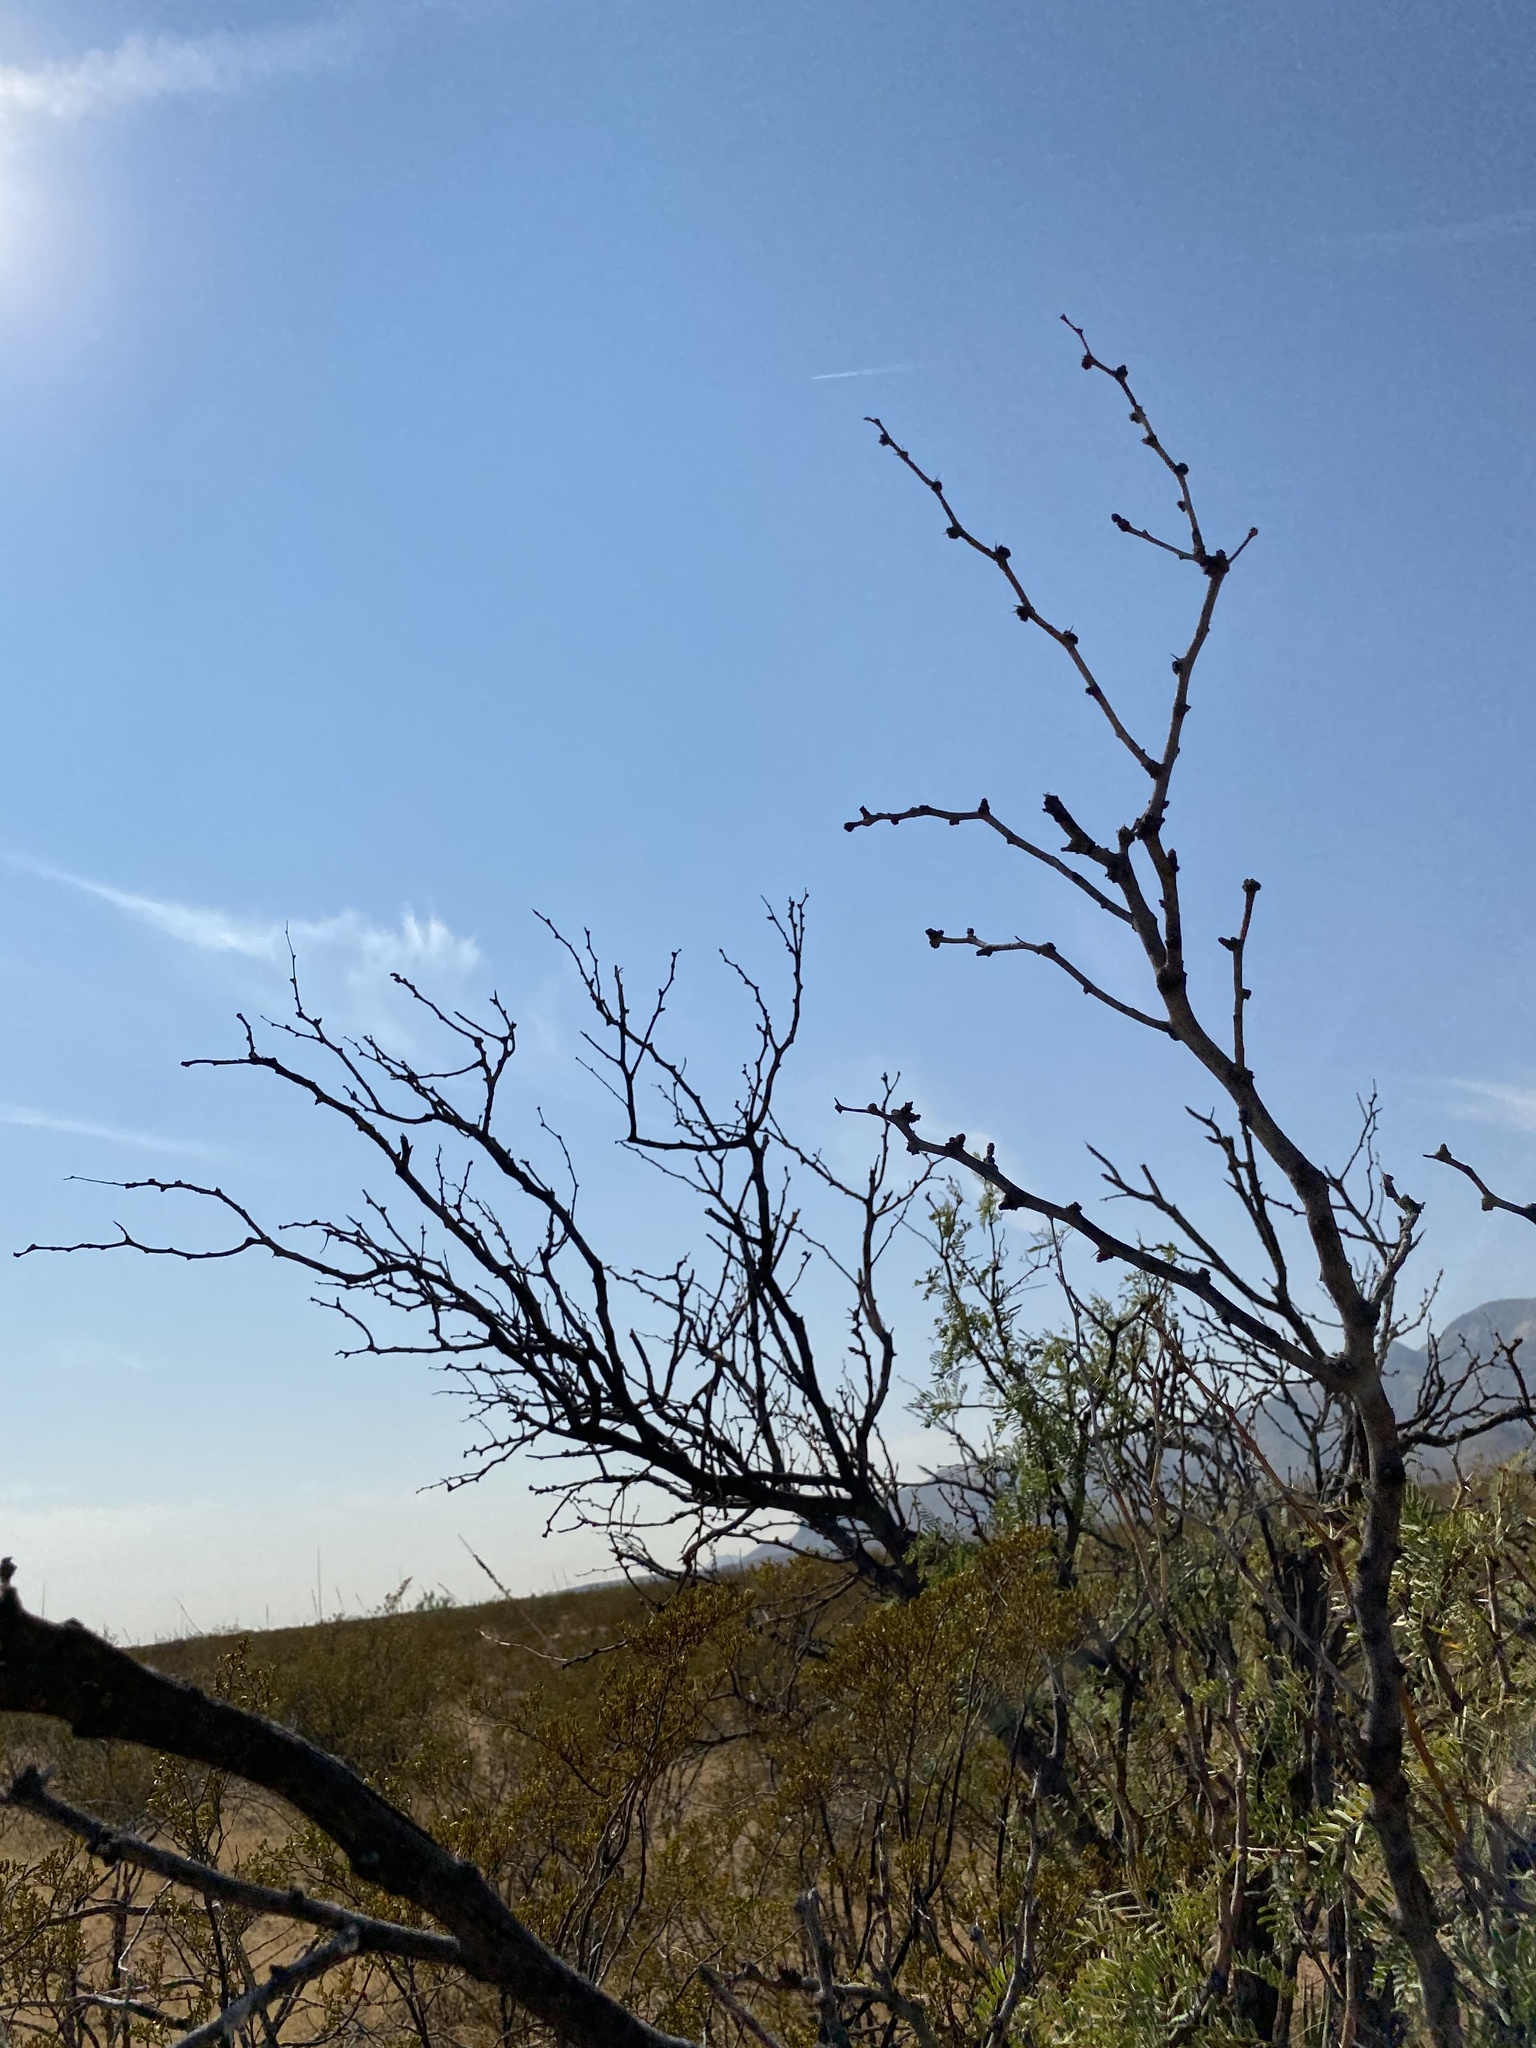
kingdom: Plantae
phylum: Tracheophyta
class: Magnoliopsida
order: Fabales
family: Fabaceae
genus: Prosopis
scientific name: Prosopis glandulosa
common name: Honey mesquite
